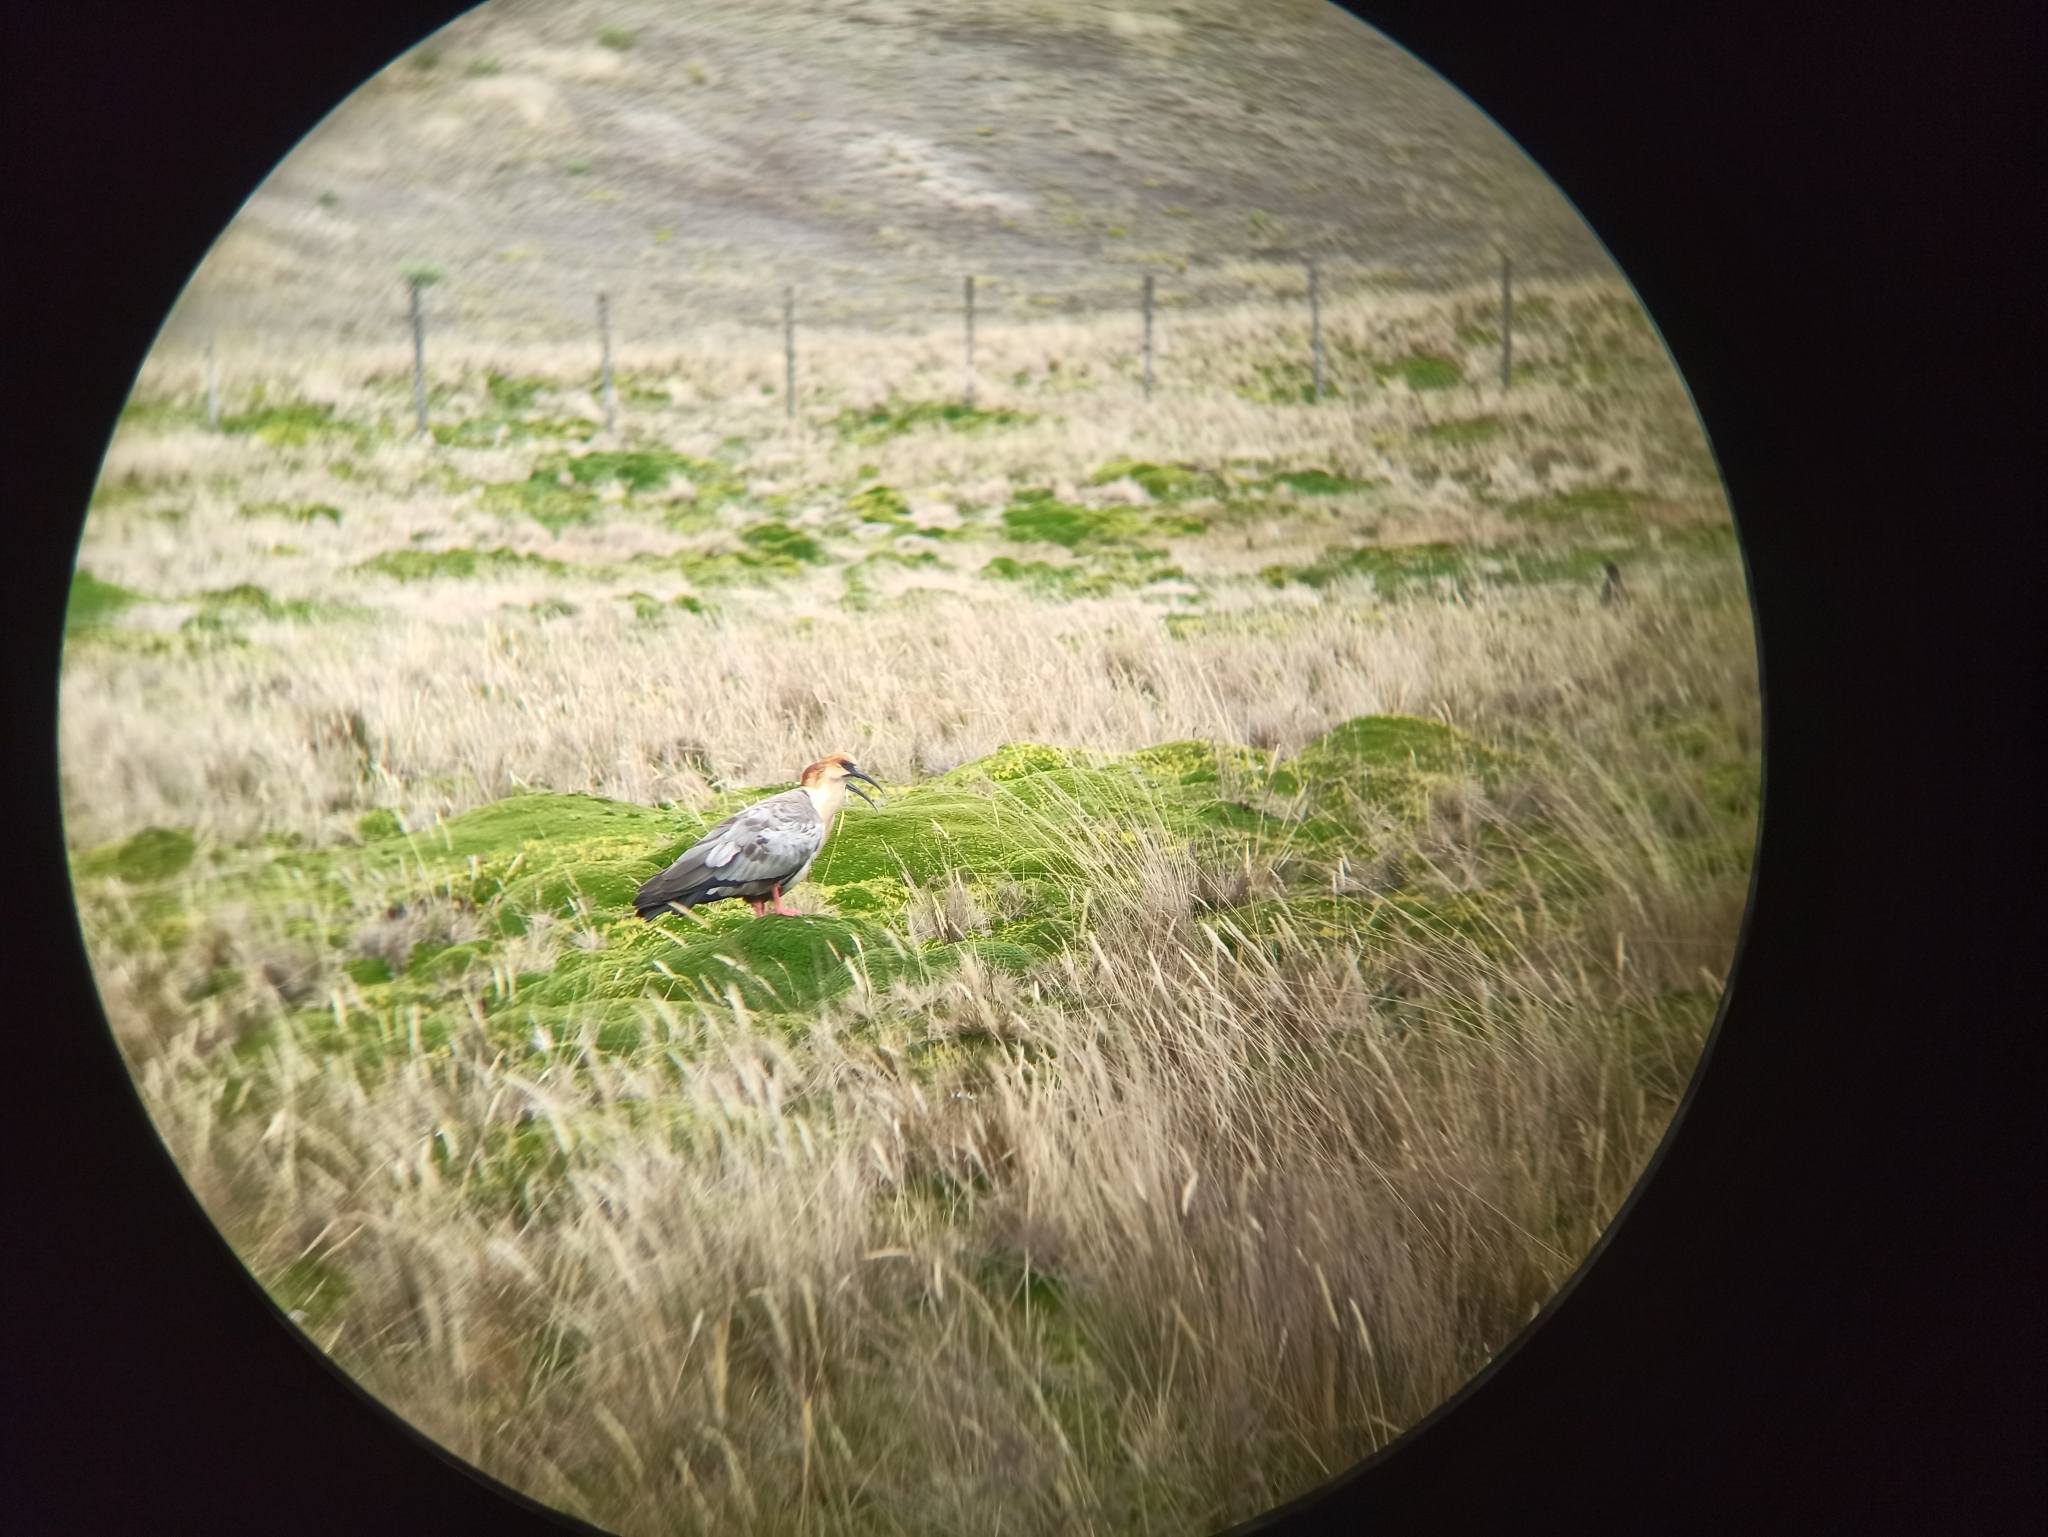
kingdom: Animalia
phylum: Chordata
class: Aves
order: Pelecaniformes
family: Threskiornithidae
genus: Theristicus
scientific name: Theristicus melanopis
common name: Black-faced ibis
